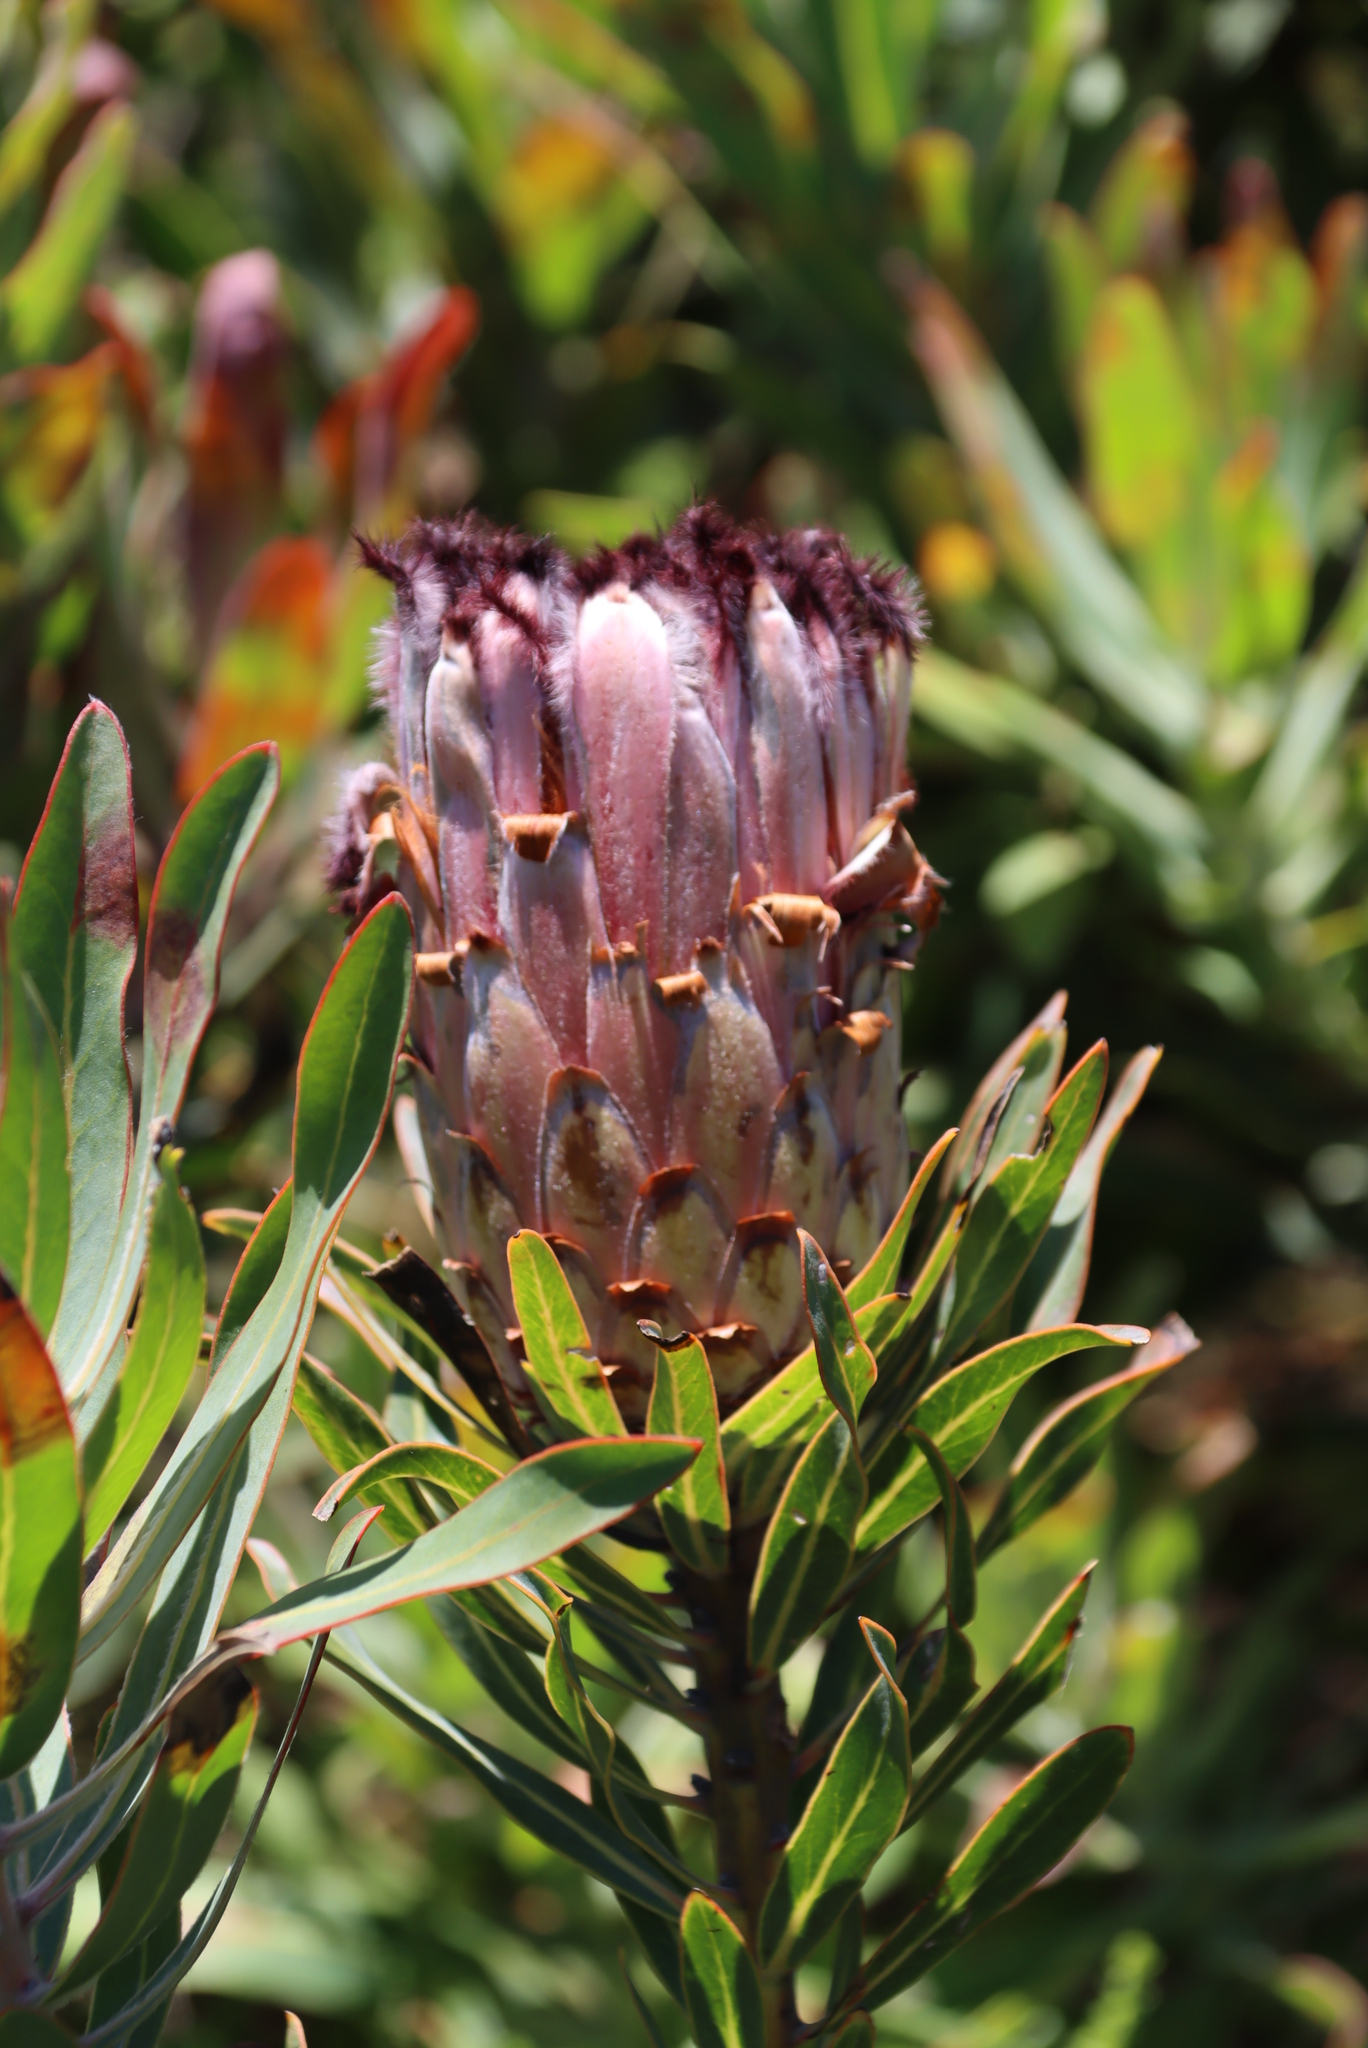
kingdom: Plantae
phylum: Tracheophyta
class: Magnoliopsida
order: Proteales
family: Proteaceae
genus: Protea
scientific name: Protea laurifolia
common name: Grey-leaf sugarbsh
